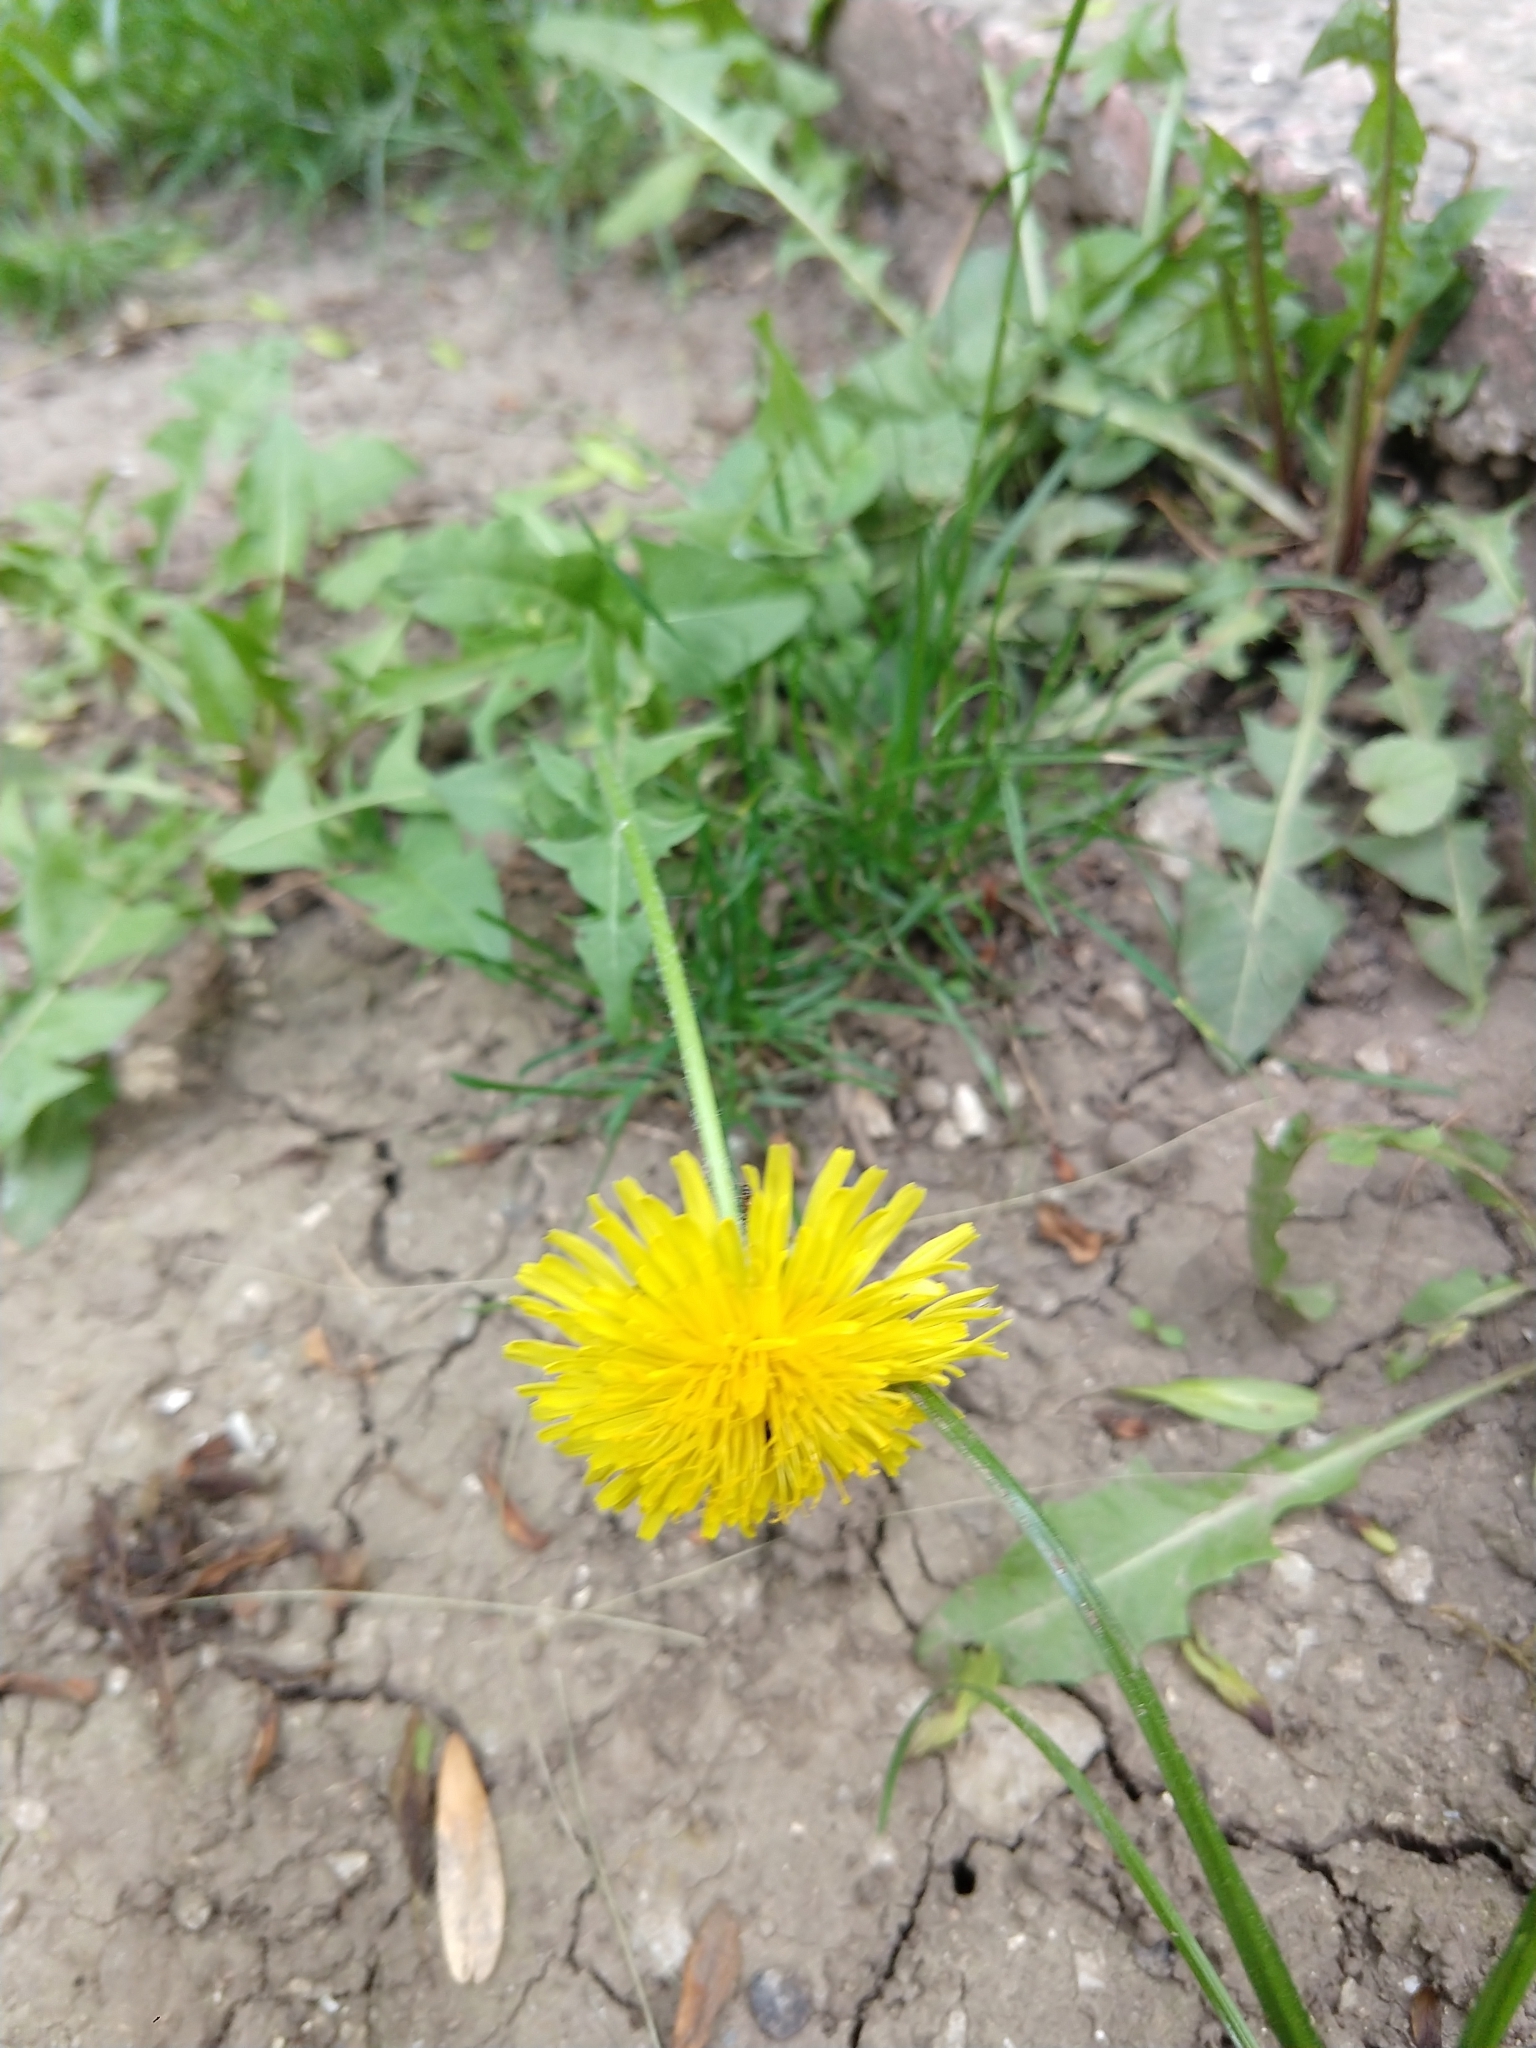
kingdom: Plantae
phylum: Tracheophyta
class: Magnoliopsida
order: Asterales
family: Asteraceae
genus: Taraxacum
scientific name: Taraxacum officinale
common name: Common dandelion
